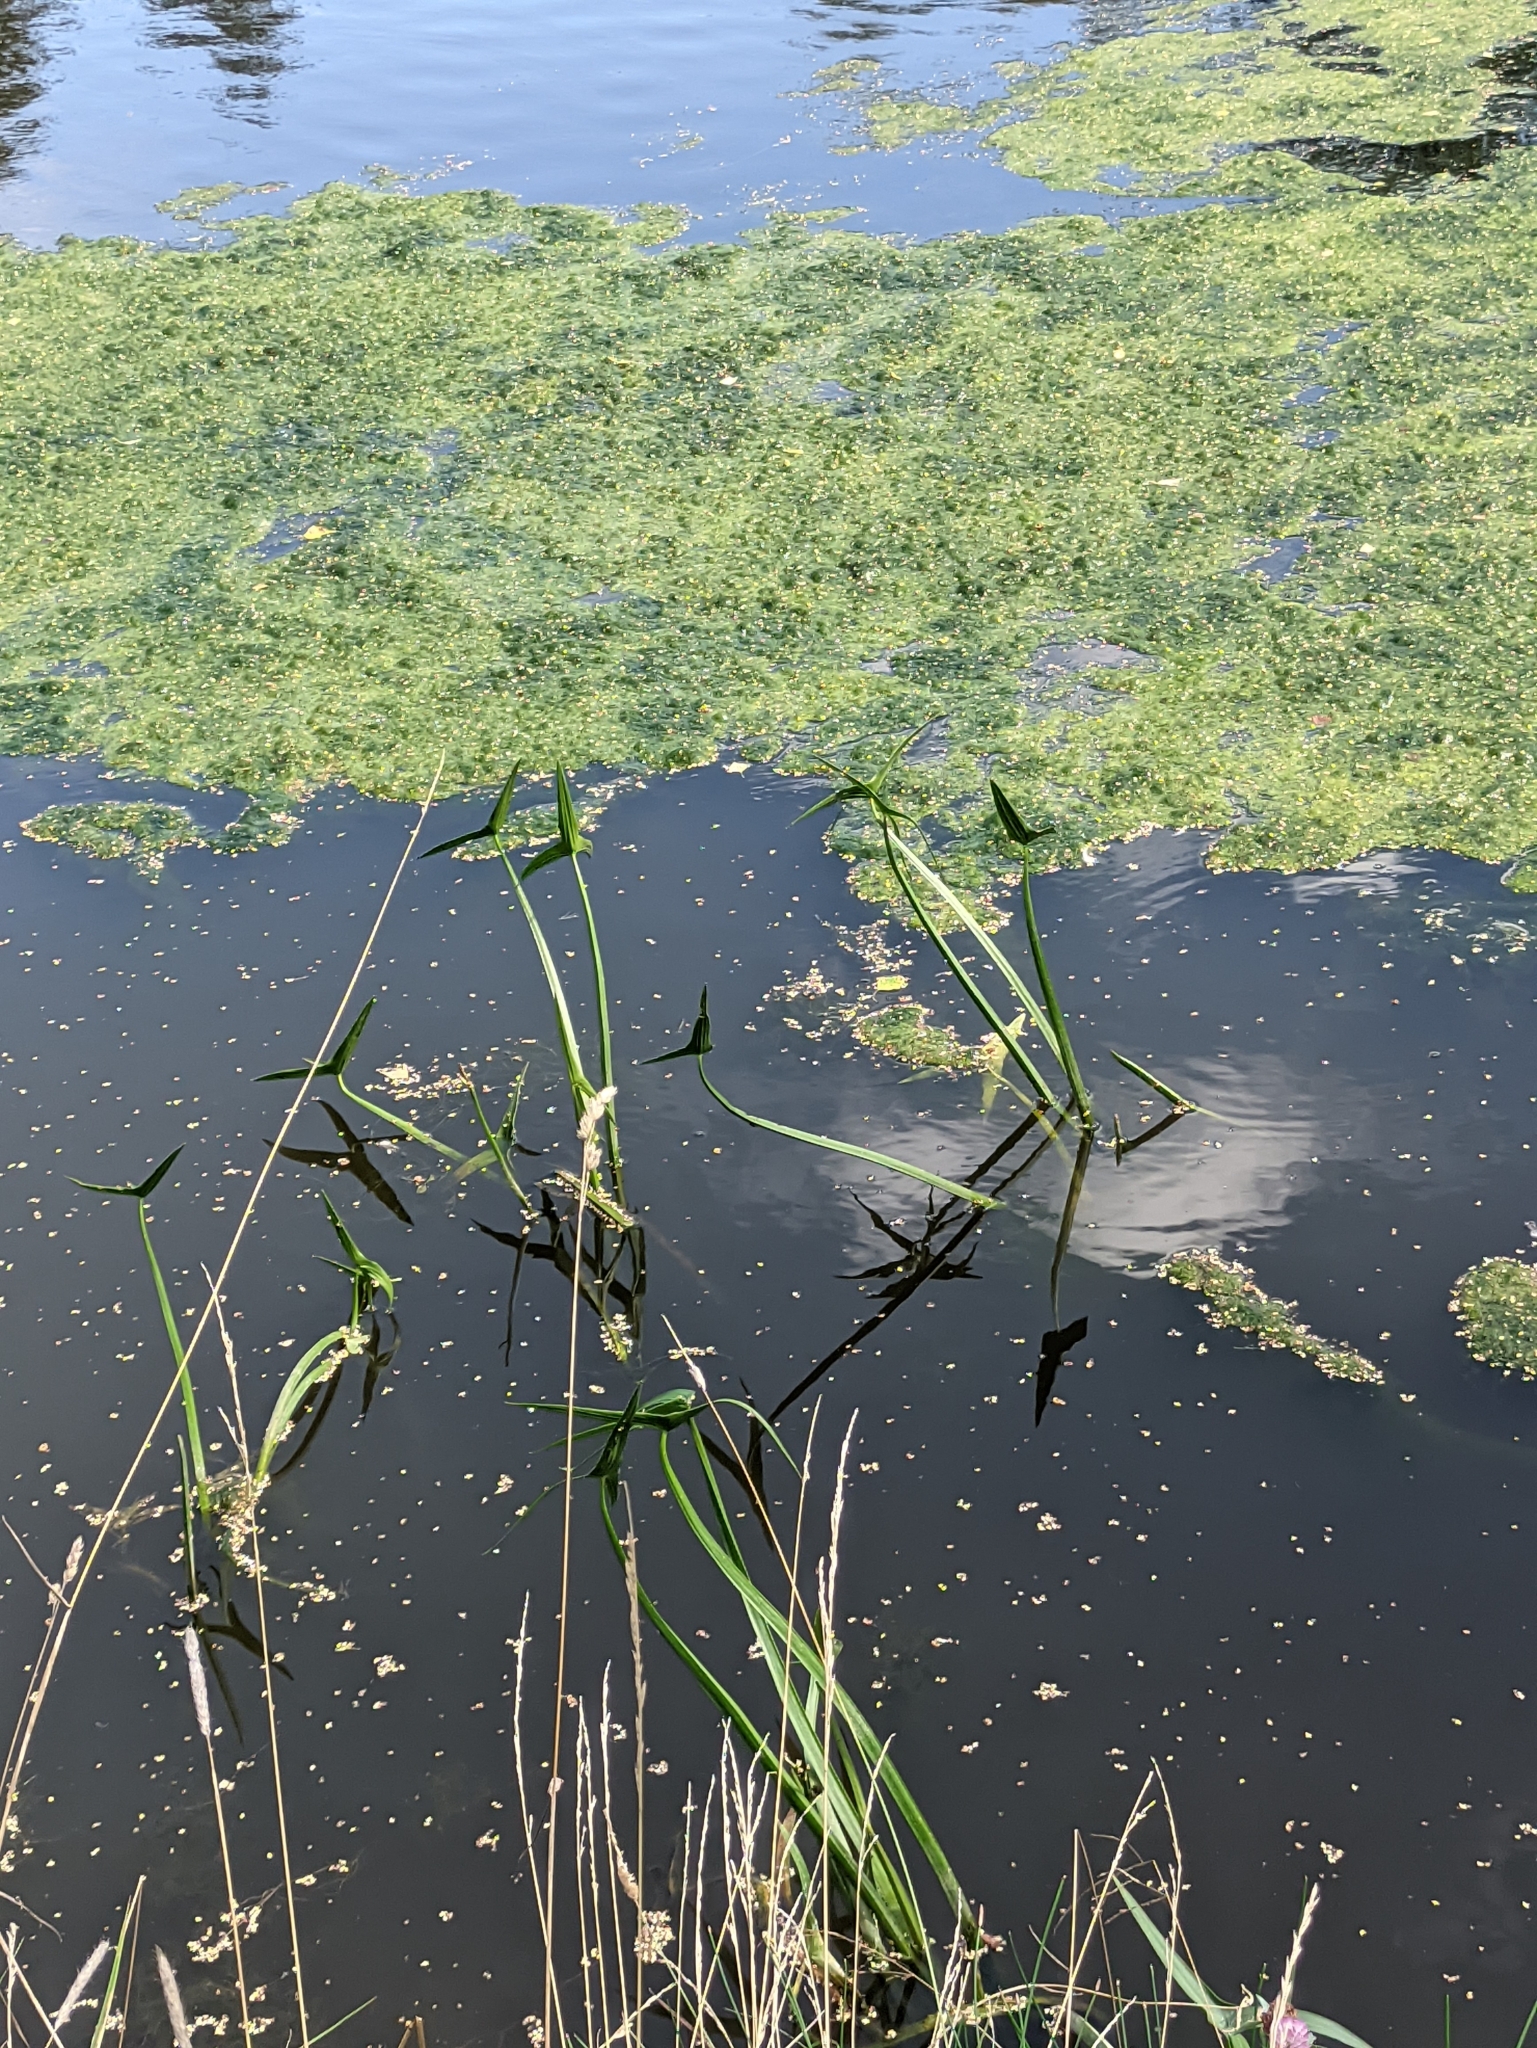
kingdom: Plantae
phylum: Tracheophyta
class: Liliopsida
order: Alismatales
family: Alismataceae
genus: Sagittaria
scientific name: Sagittaria sagittifolia
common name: Arrowhead
